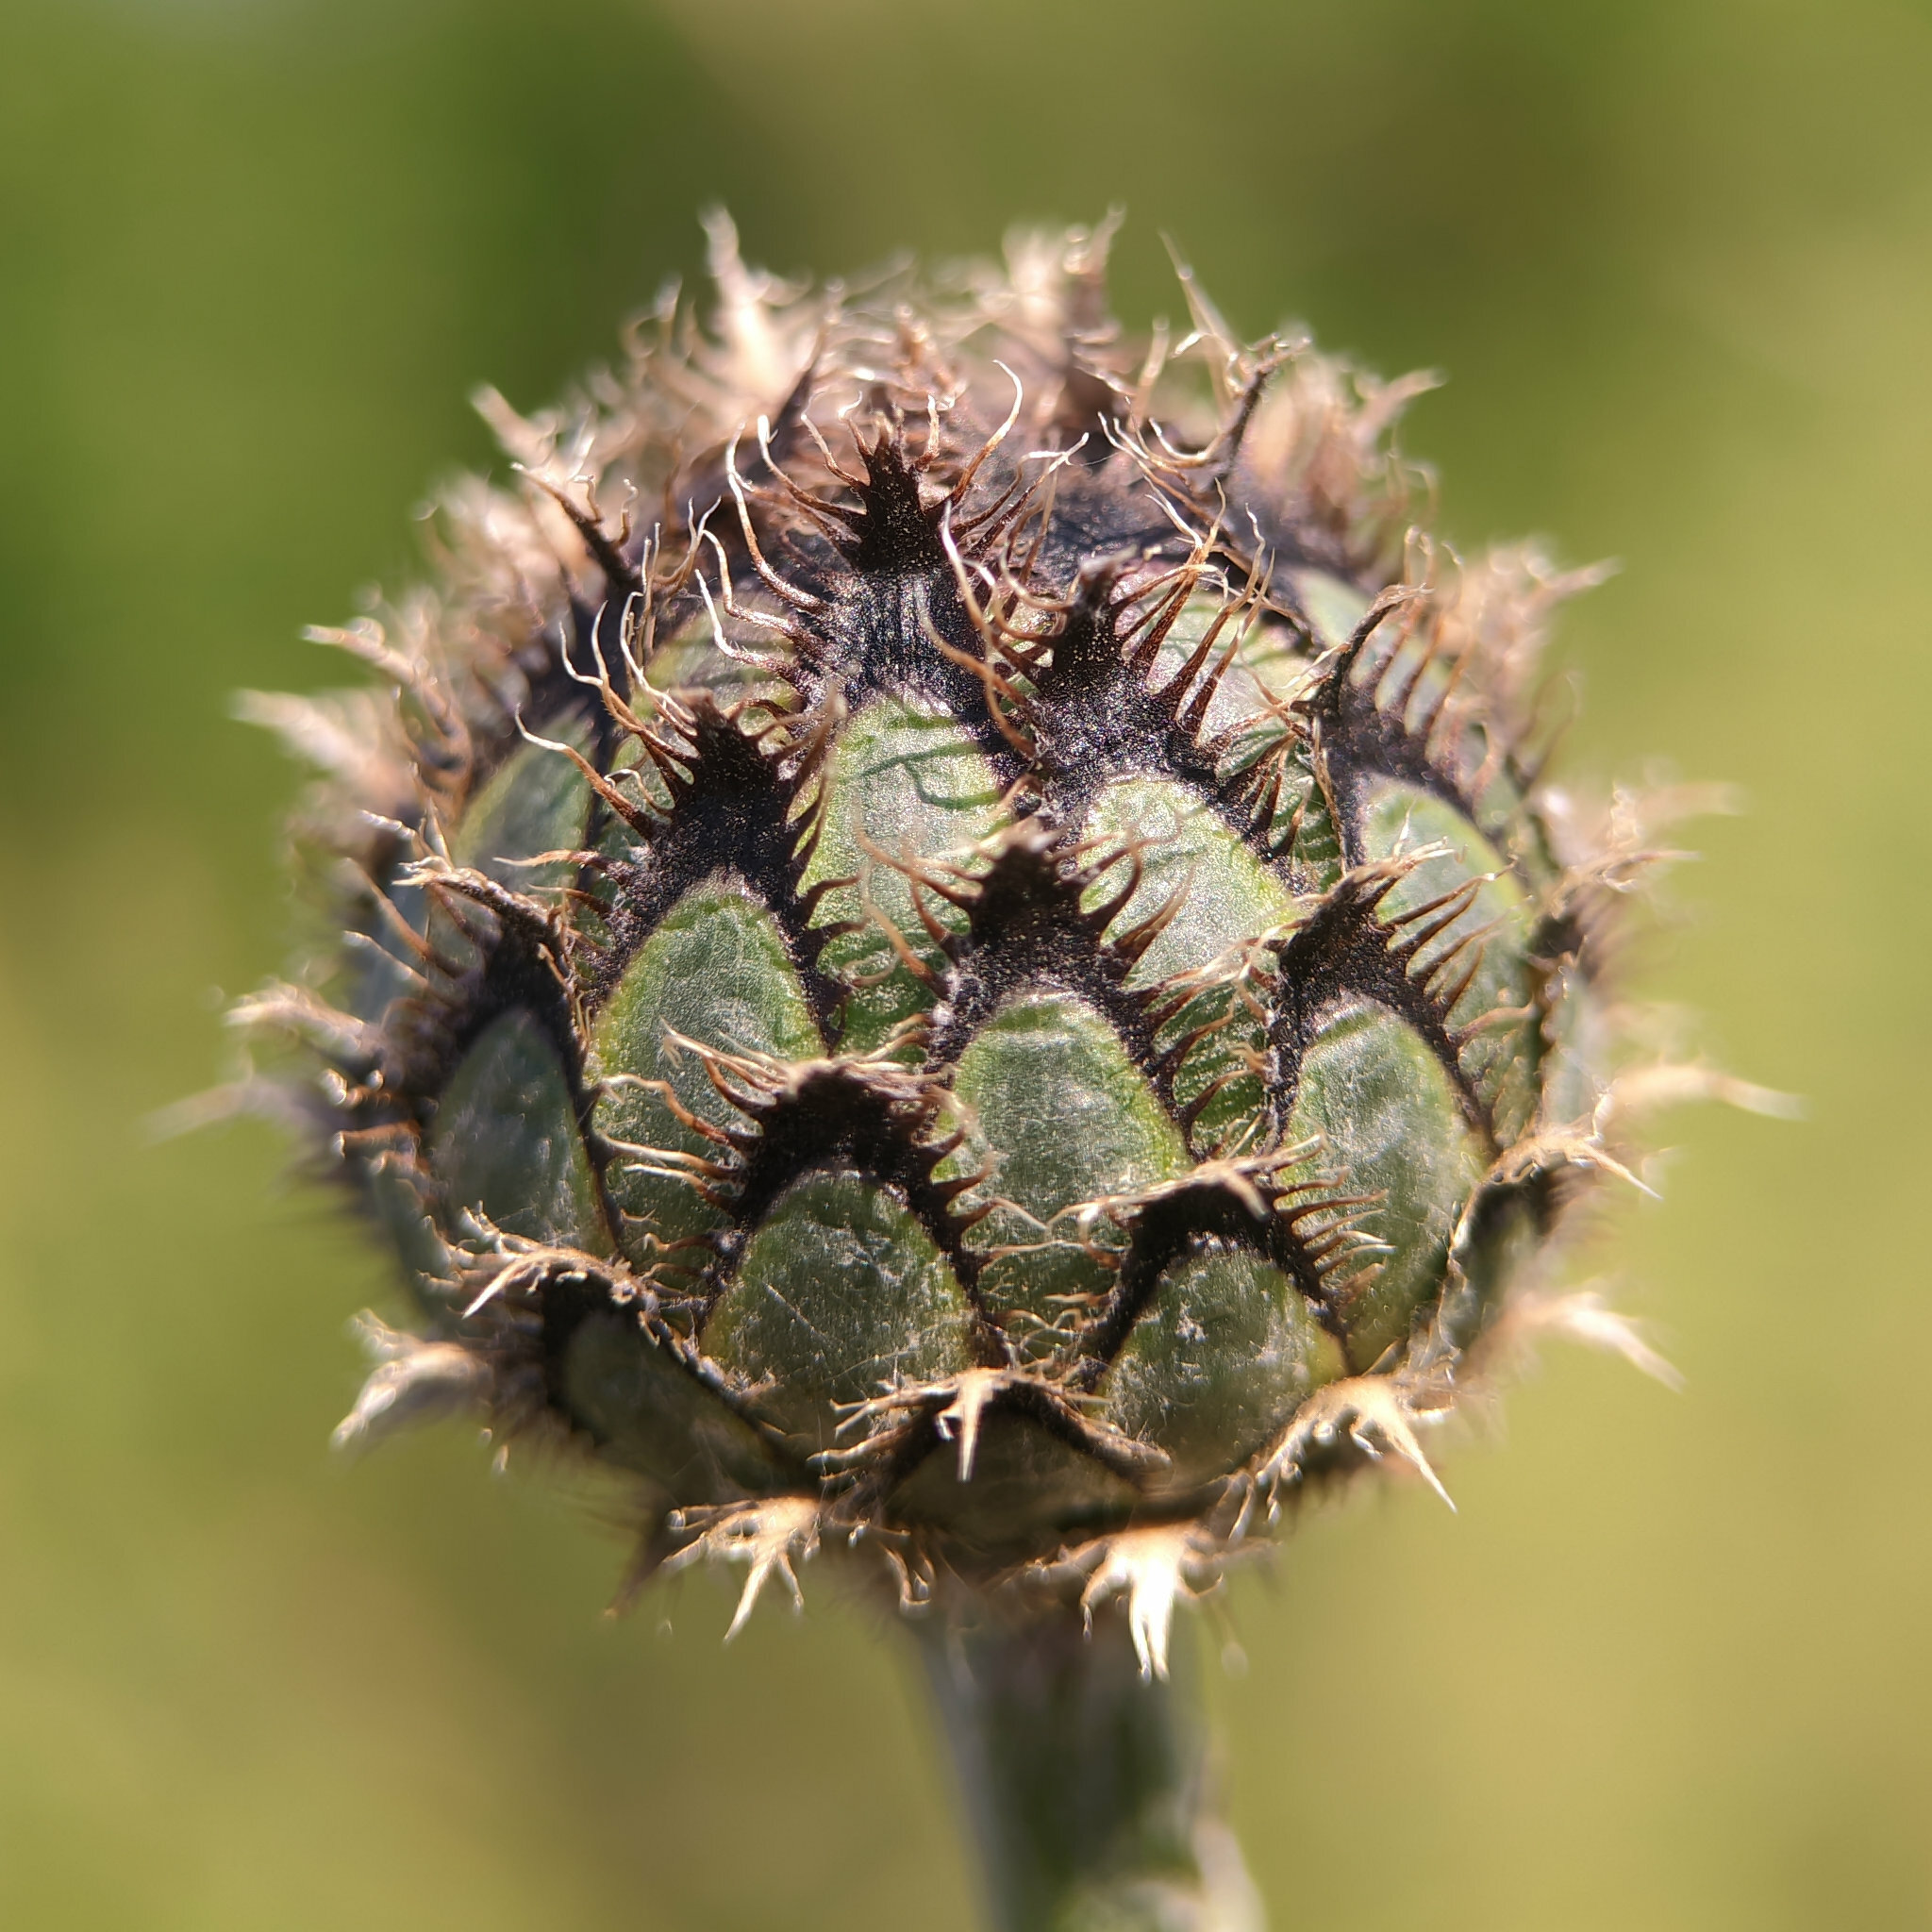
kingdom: Plantae
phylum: Tracheophyta
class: Magnoliopsida
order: Asterales
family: Asteraceae
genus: Centaurea
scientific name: Centaurea scabiosa
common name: Greater knapweed
